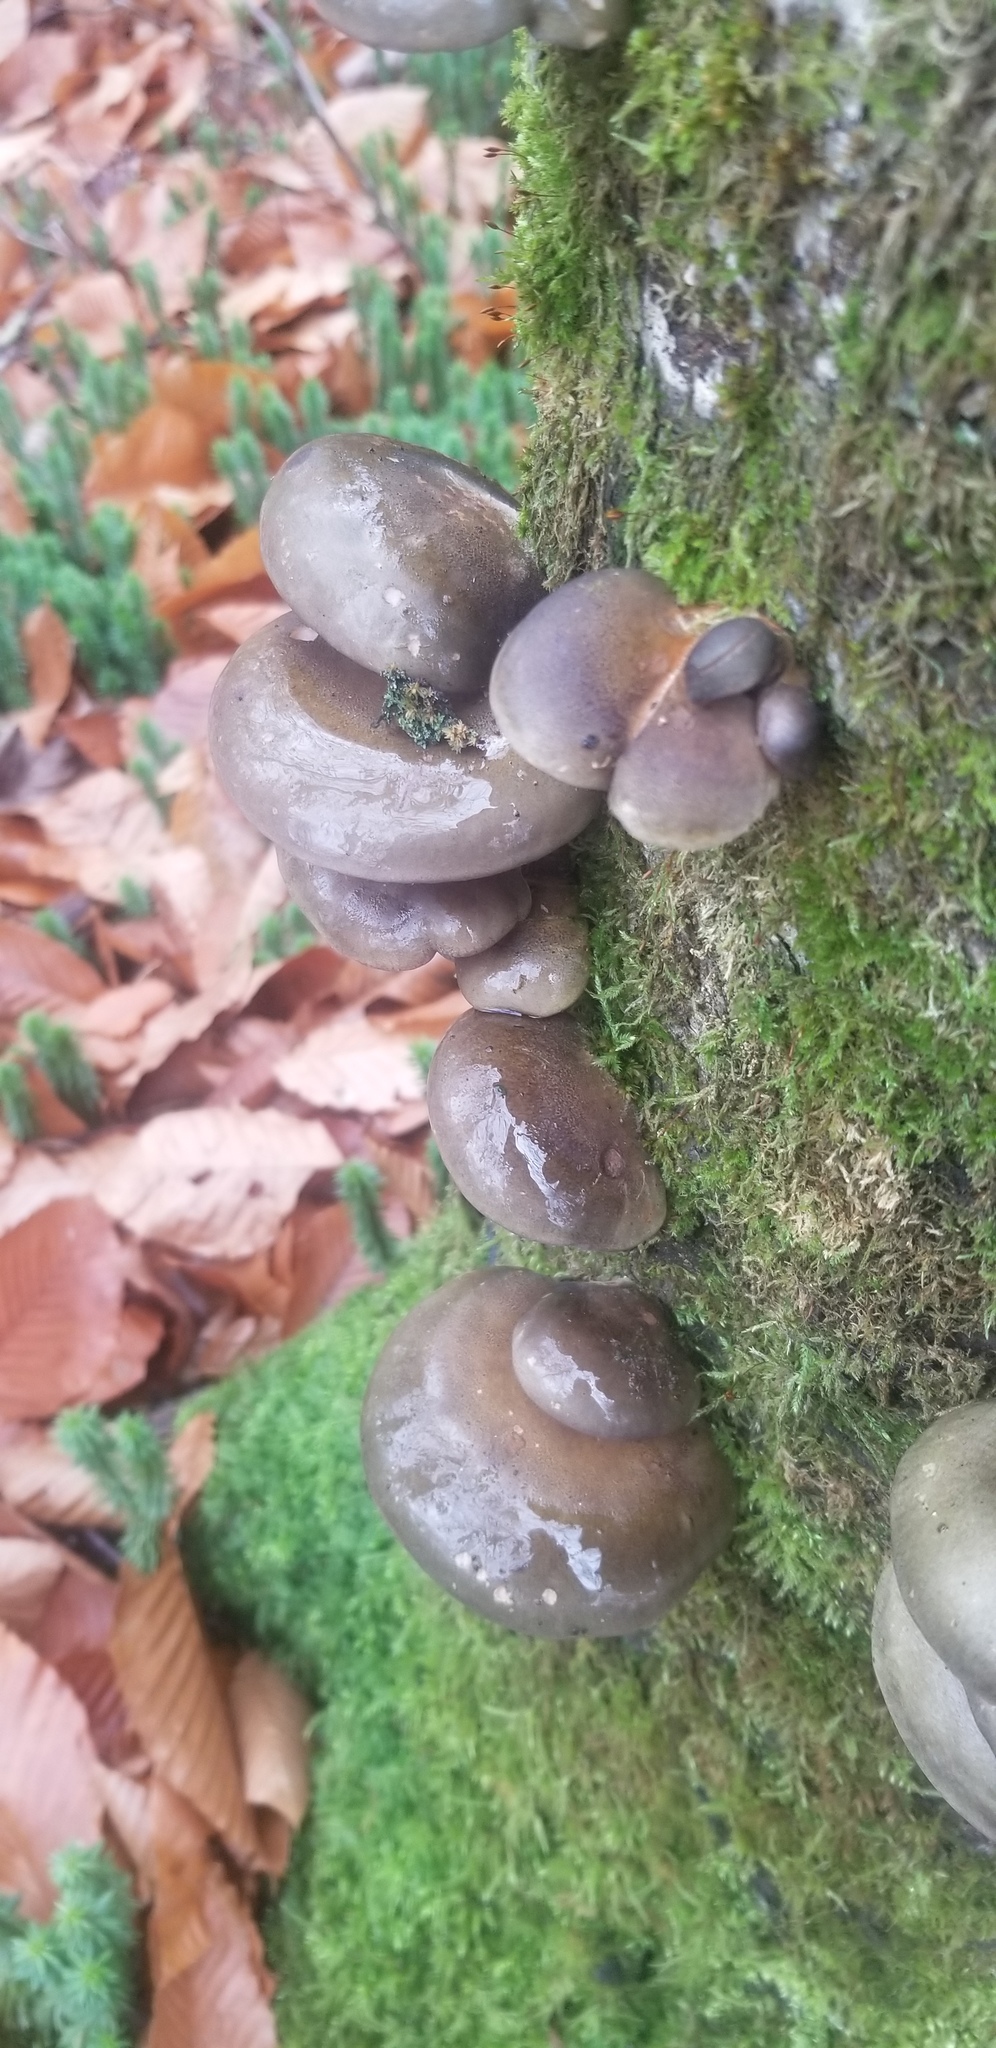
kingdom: Fungi
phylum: Basidiomycota
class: Agaricomycetes
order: Agaricales
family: Sarcomyxaceae
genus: Sarcomyxa
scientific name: Sarcomyxa serotina
